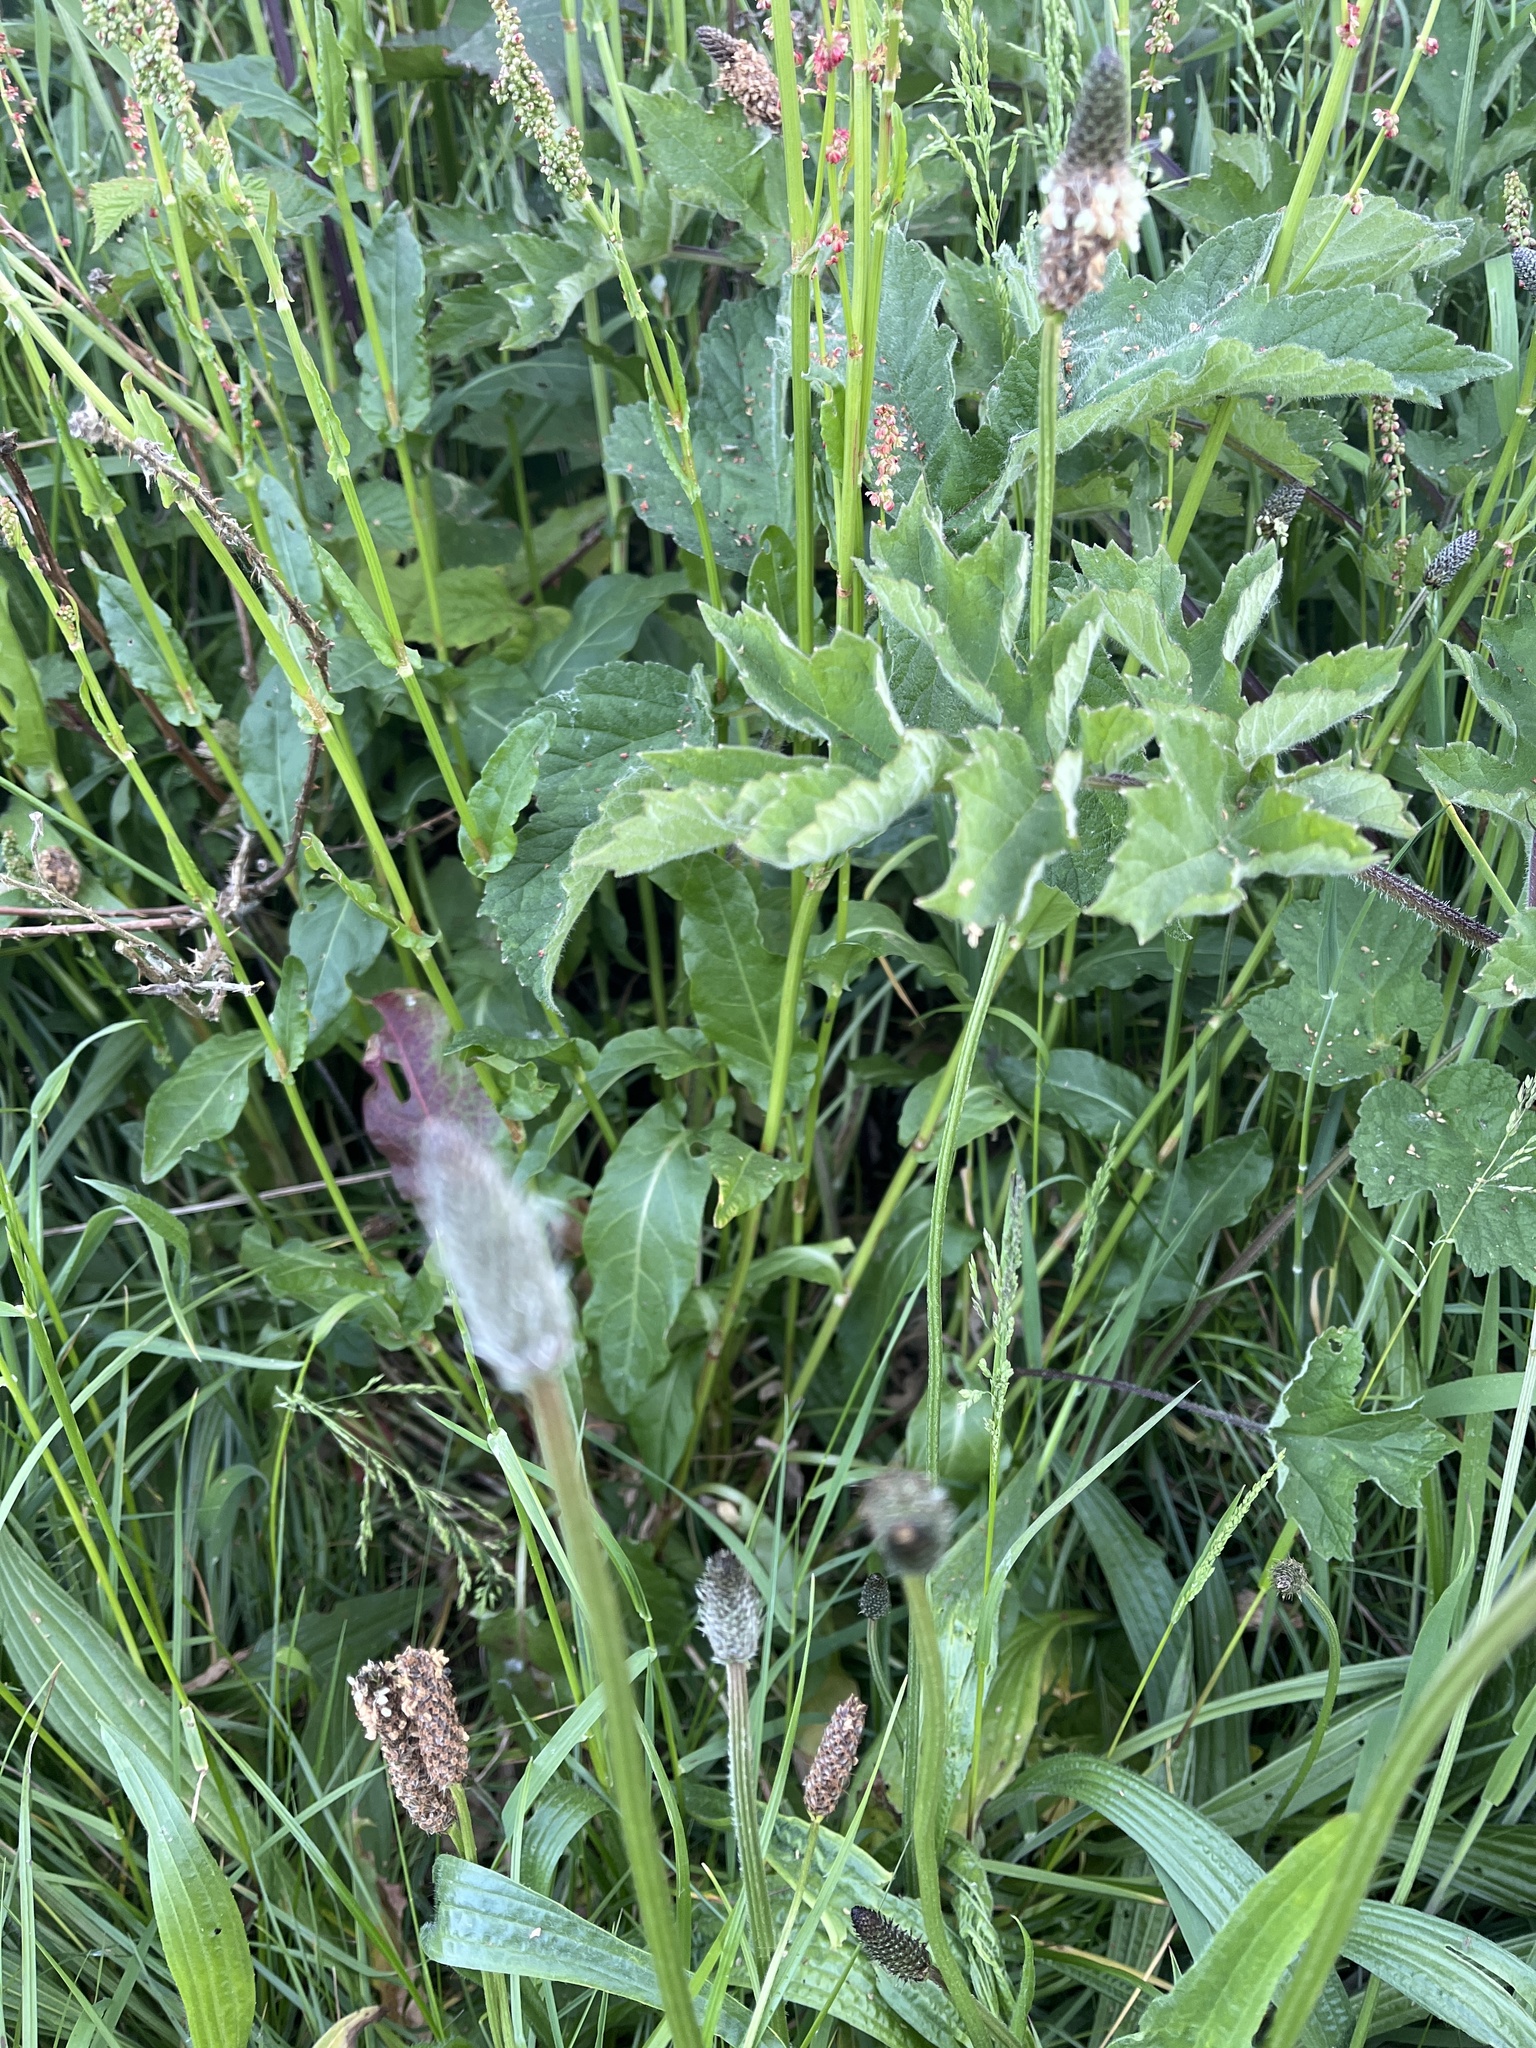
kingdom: Plantae
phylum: Tracheophyta
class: Magnoliopsida
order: Caryophyllales
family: Polygonaceae
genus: Rumex
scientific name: Rumex acetosa
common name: Garden sorrel
